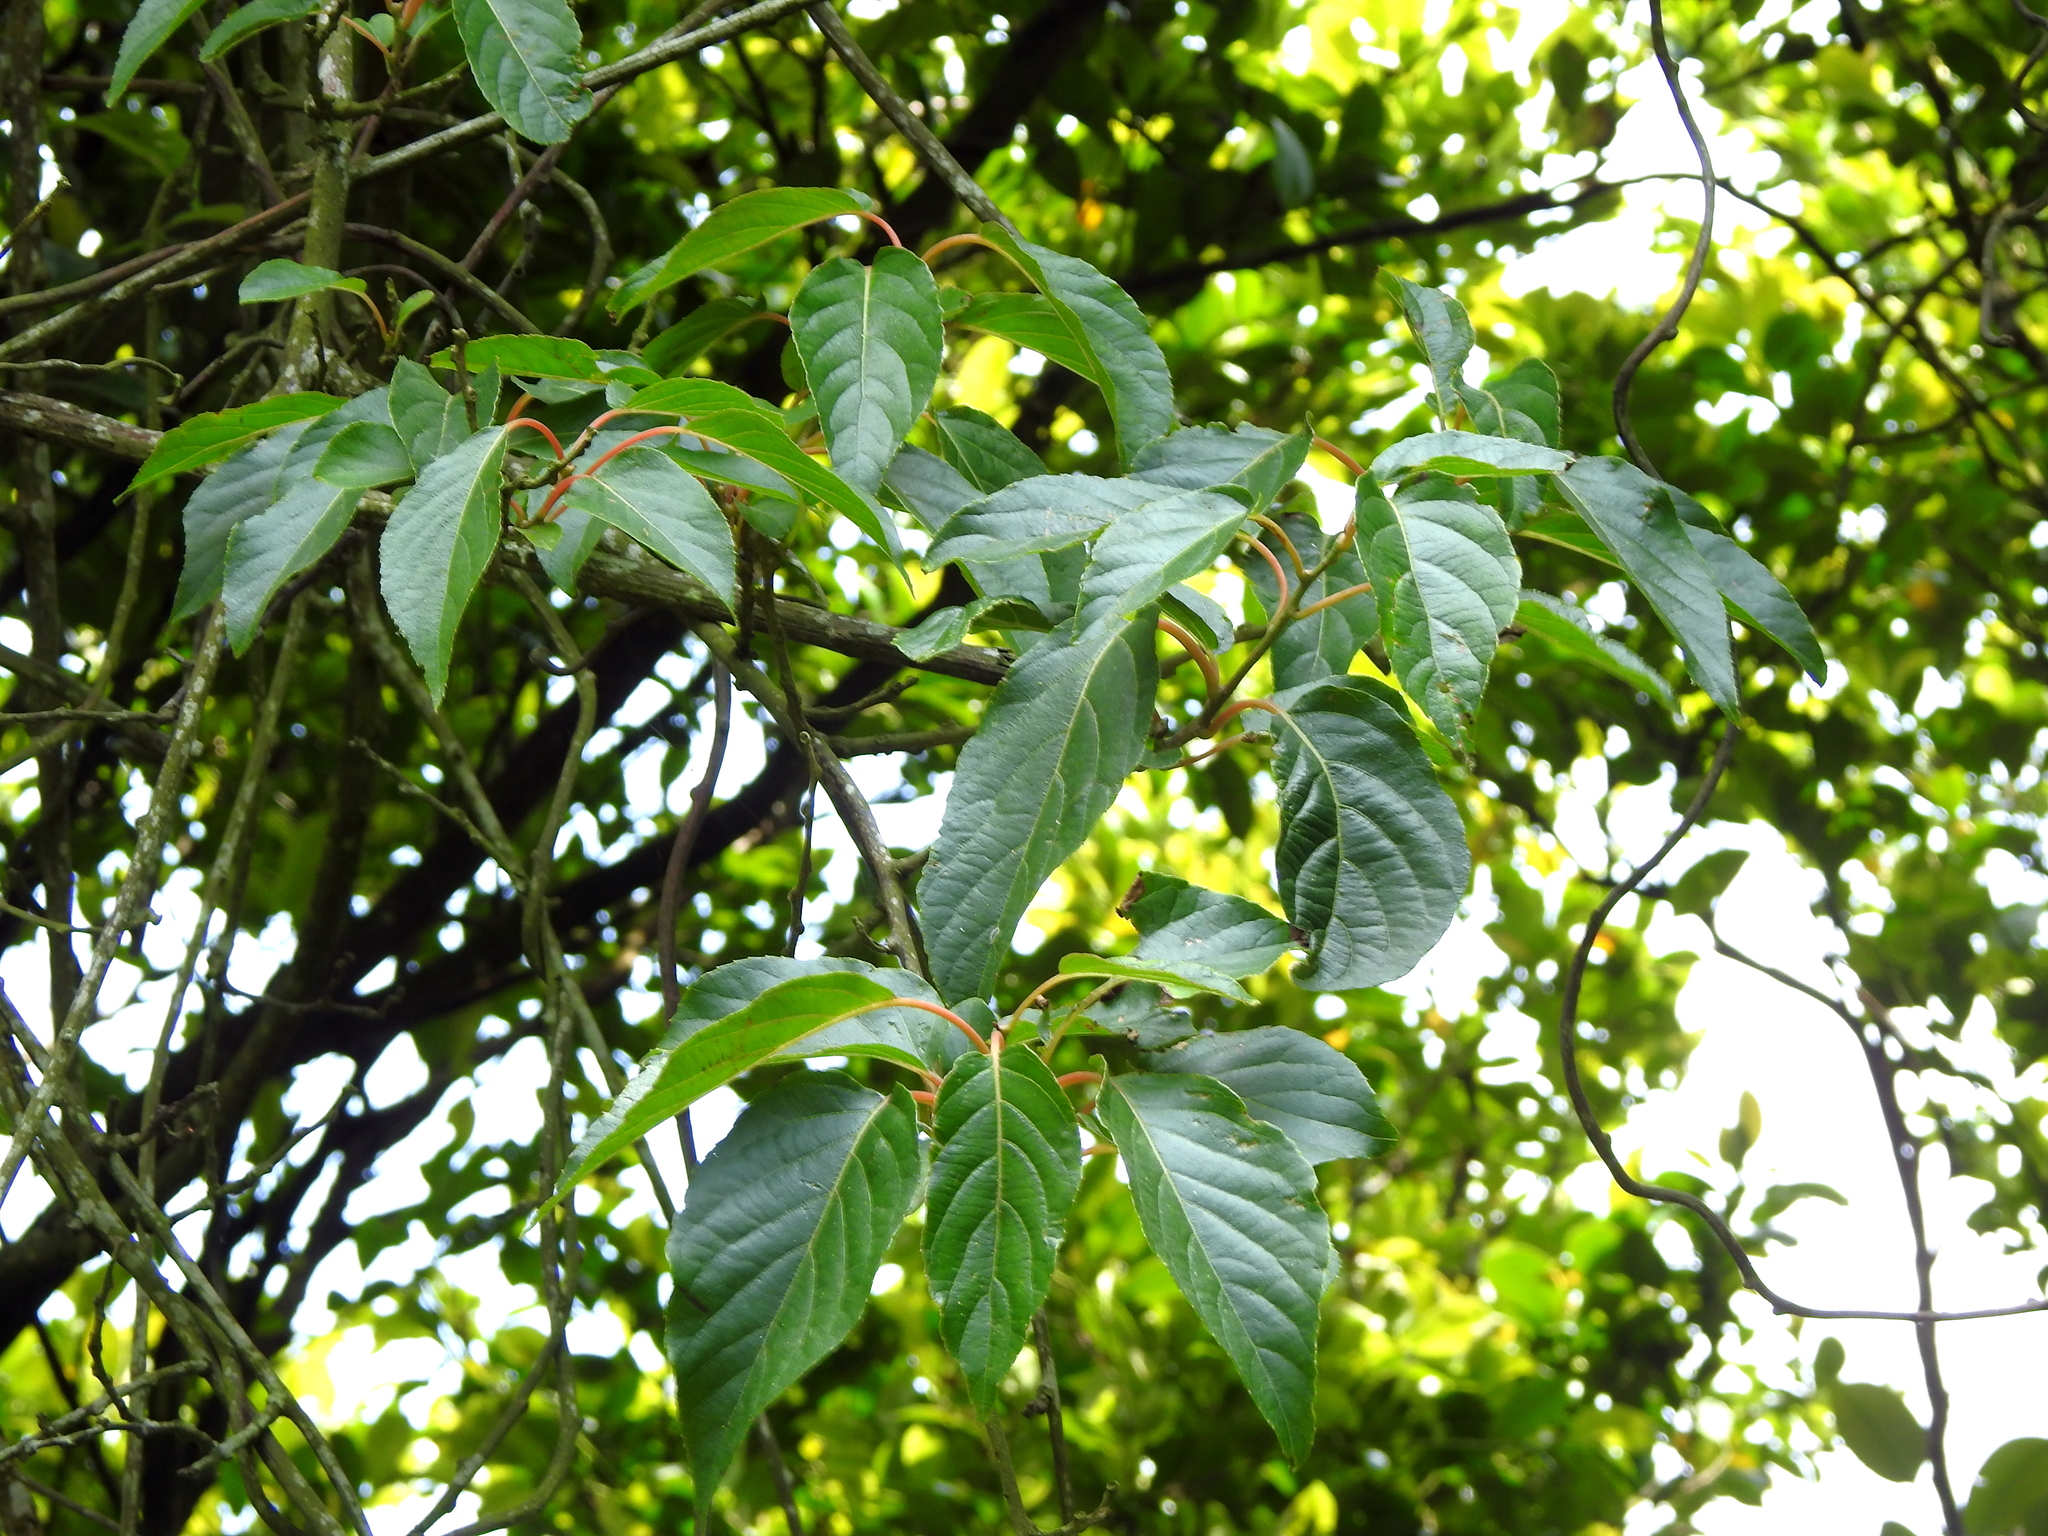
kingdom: Plantae
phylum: Tracheophyta
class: Magnoliopsida
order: Ericales
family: Actinidiaceae
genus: Actinidia
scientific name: Actinidia rufa
